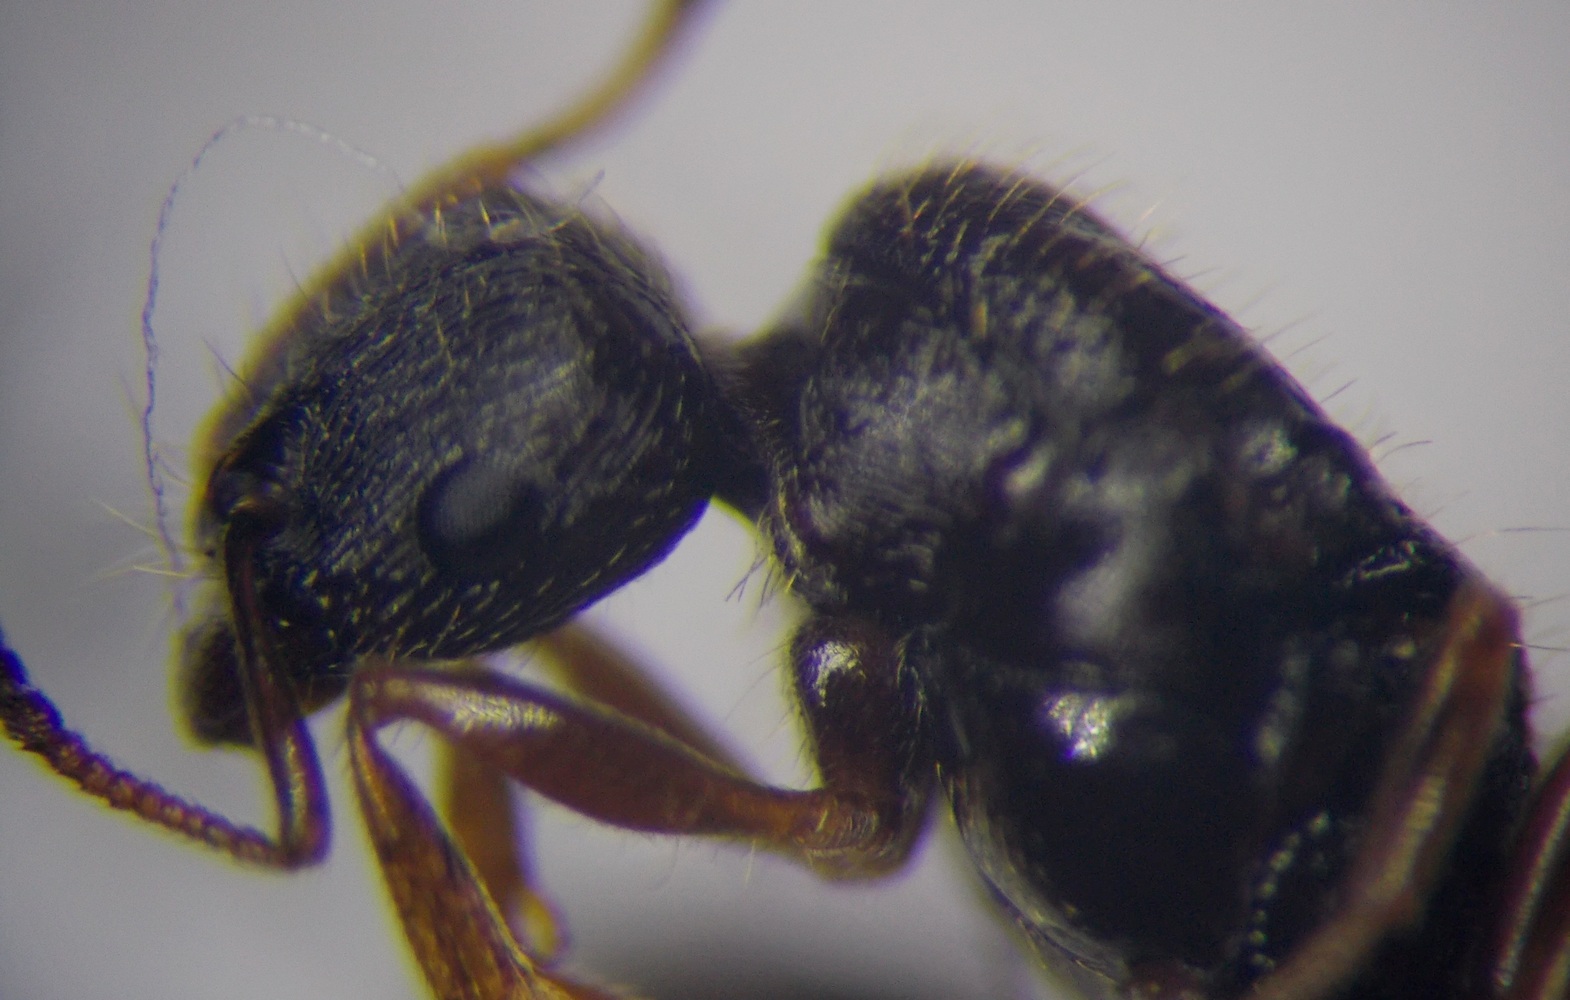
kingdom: Animalia
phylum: Arthropoda
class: Insecta
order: Hymenoptera
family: Formicidae
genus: Tetramorium
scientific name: Tetramorium caespitum
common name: Pavement ant
